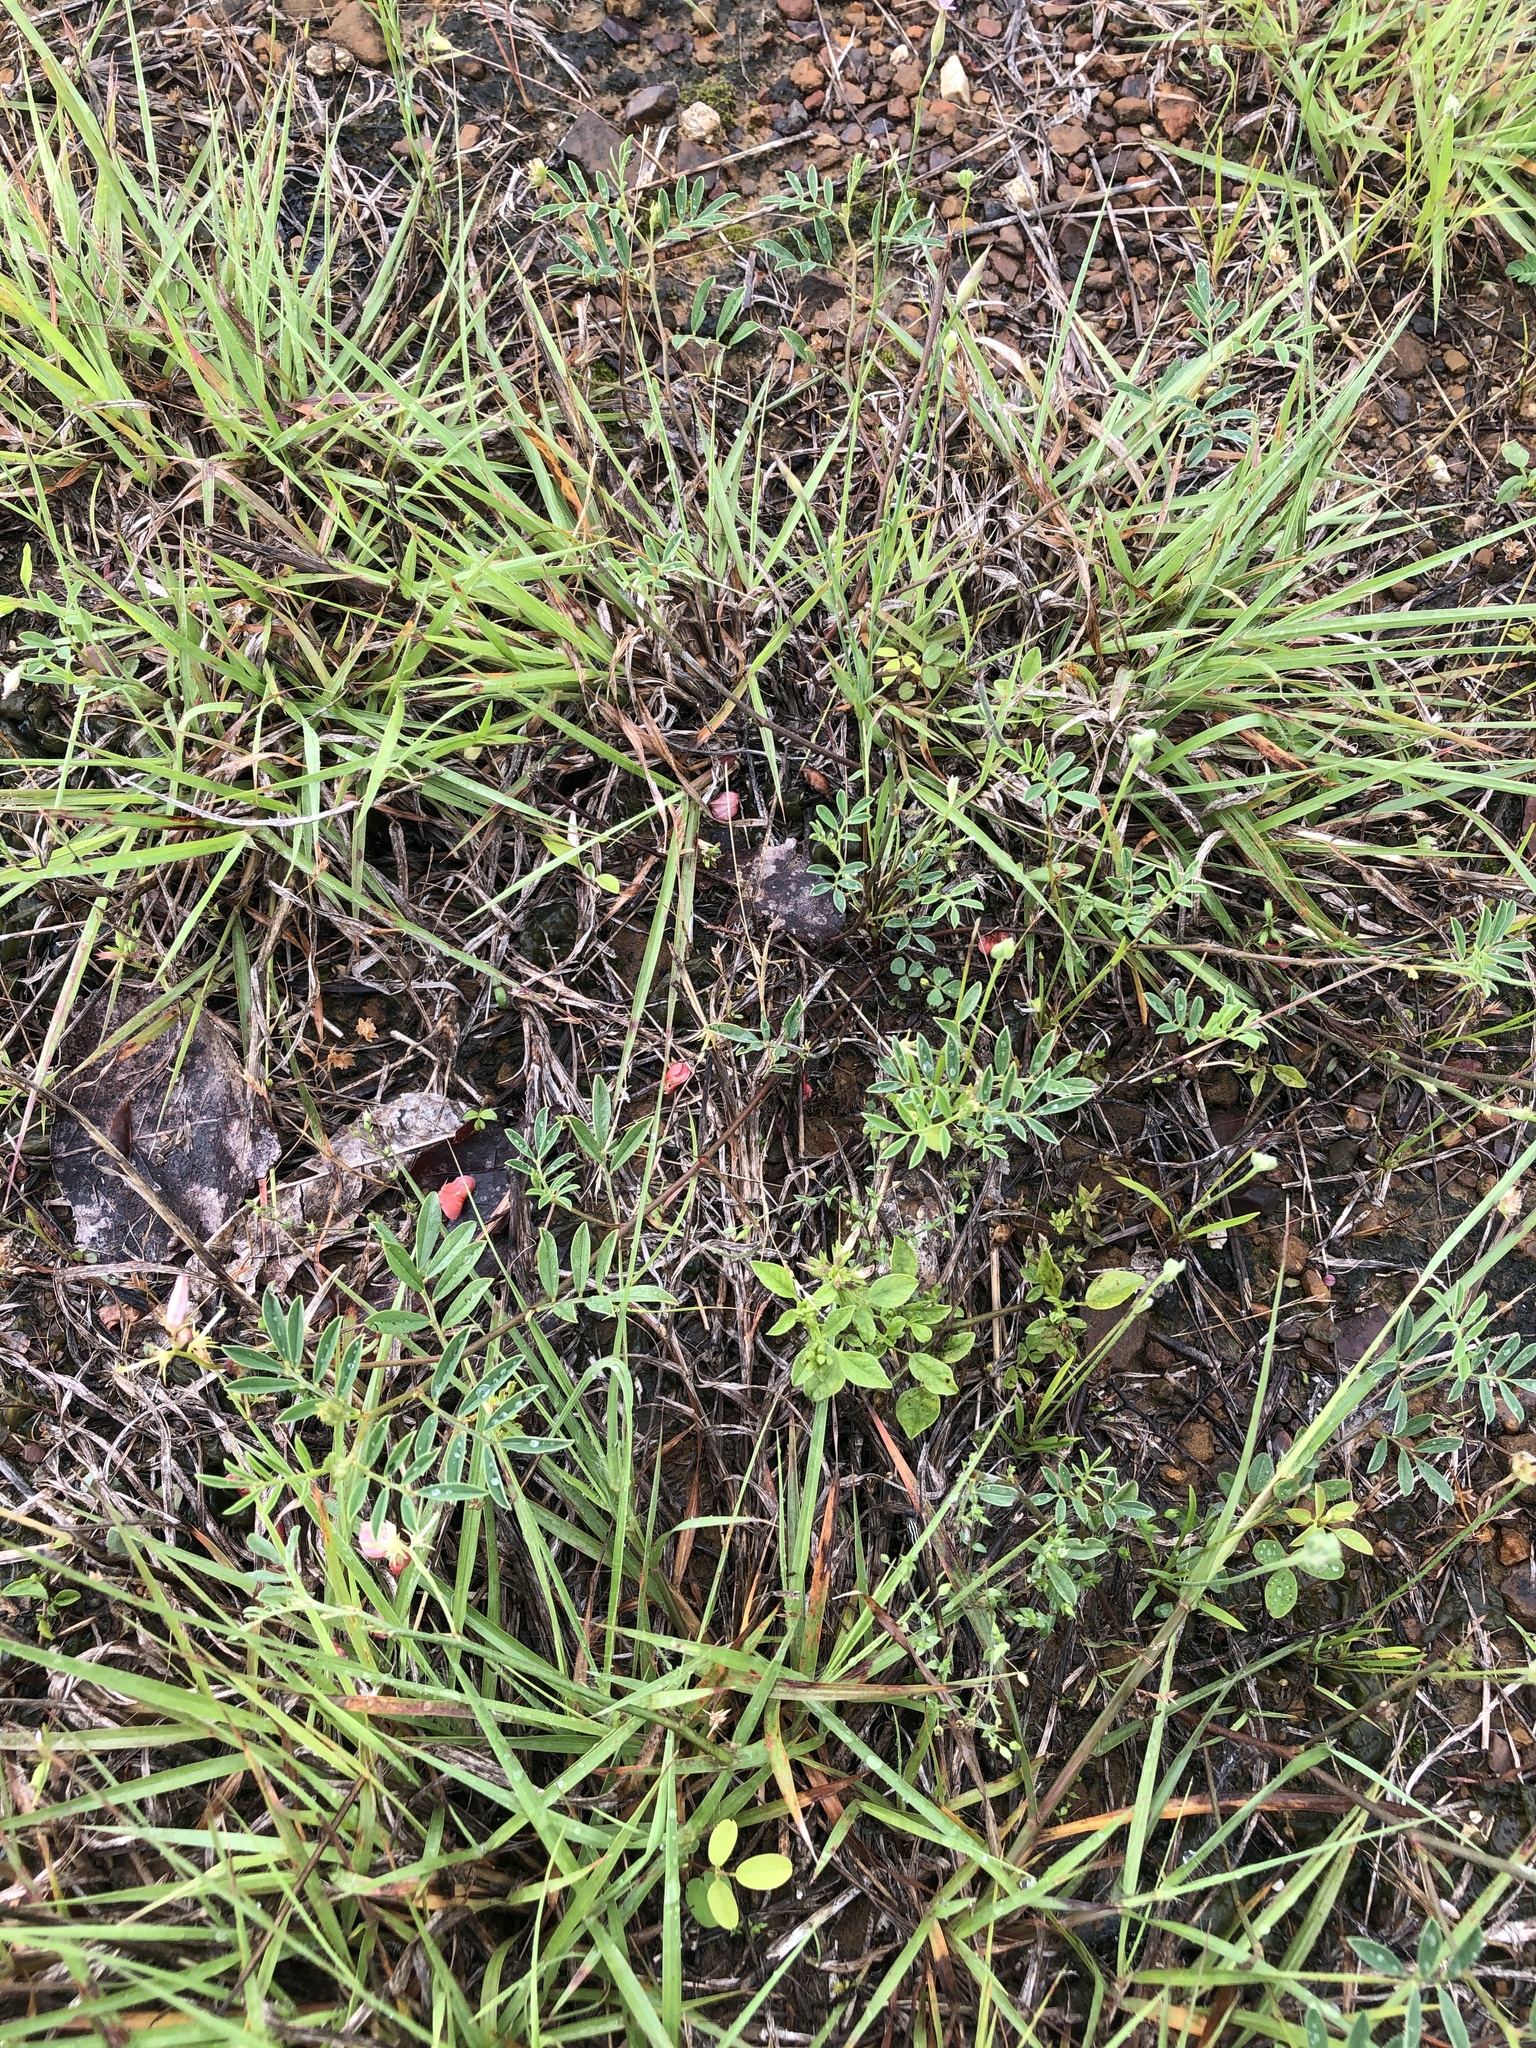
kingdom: Plantae
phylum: Tracheophyta
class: Magnoliopsida
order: Fabales
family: Fabaceae
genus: Indigofera
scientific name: Indigofera miniata
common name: Coast indigo
